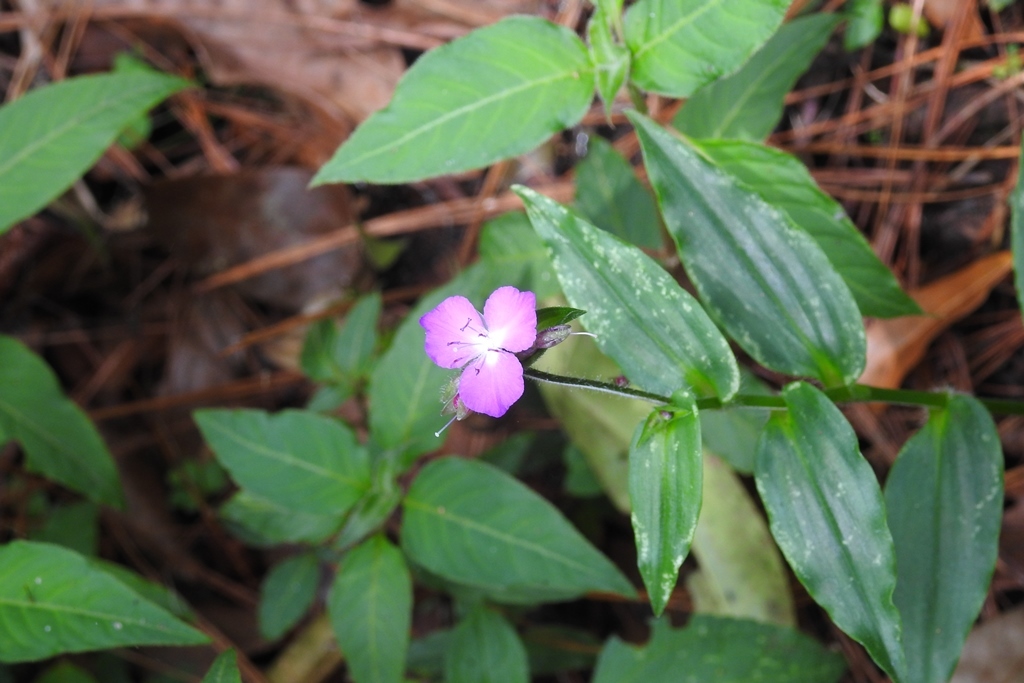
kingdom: Plantae
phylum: Tracheophyta
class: Liliopsida
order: Commelinales
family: Commelinaceae
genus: Tradescantia
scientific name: Tradescantia commelinoides
